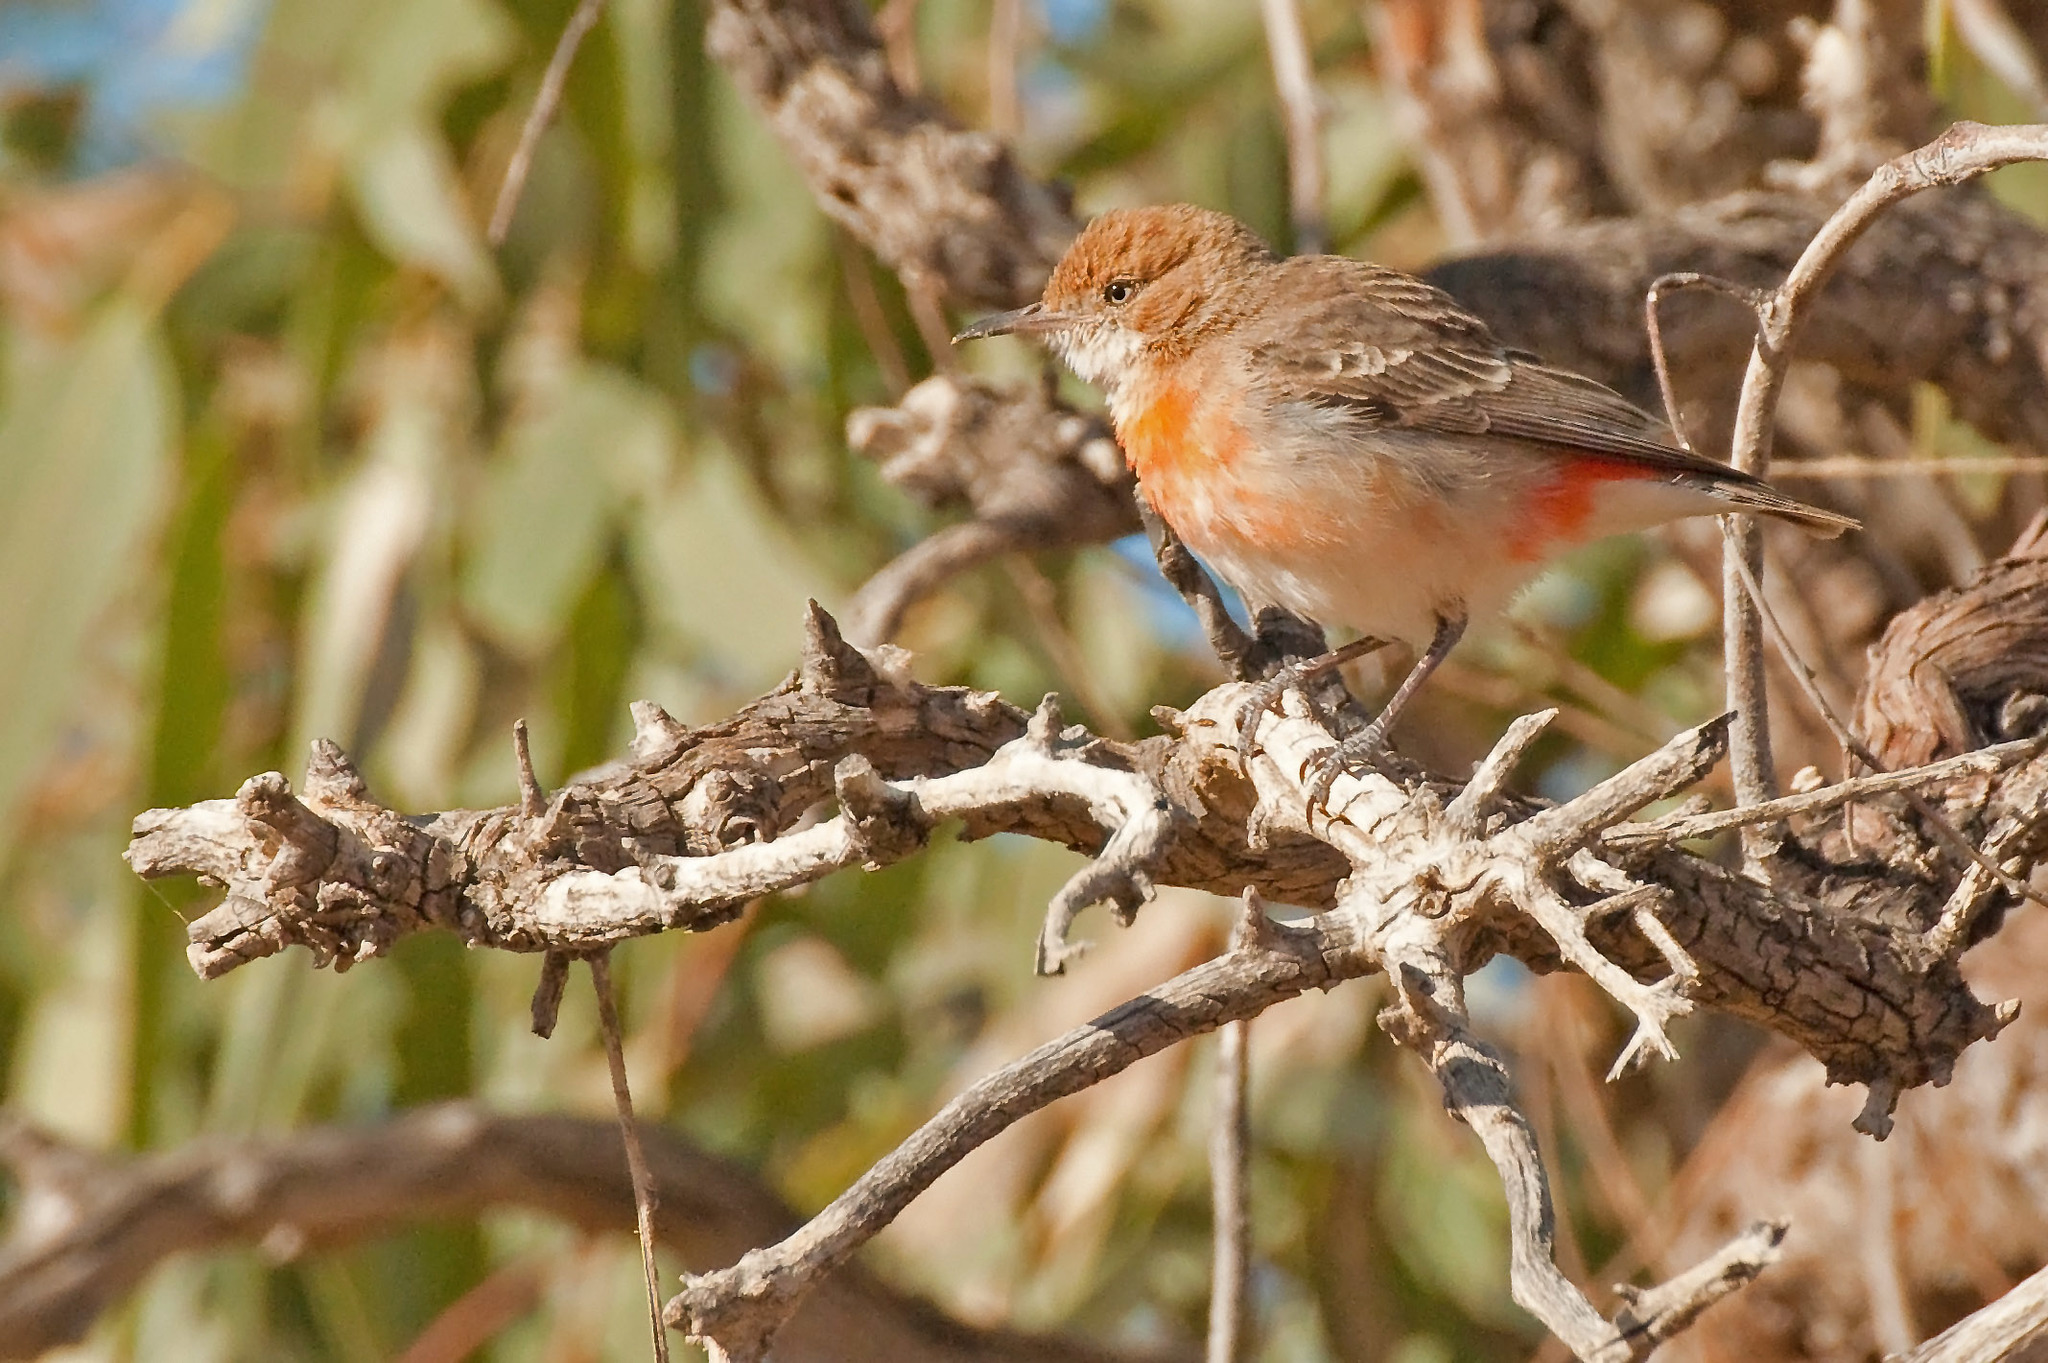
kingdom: Animalia
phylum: Chordata
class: Aves
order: Passeriformes
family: Meliphagidae
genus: Epthianura
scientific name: Epthianura tricolor
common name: Crimson chat
